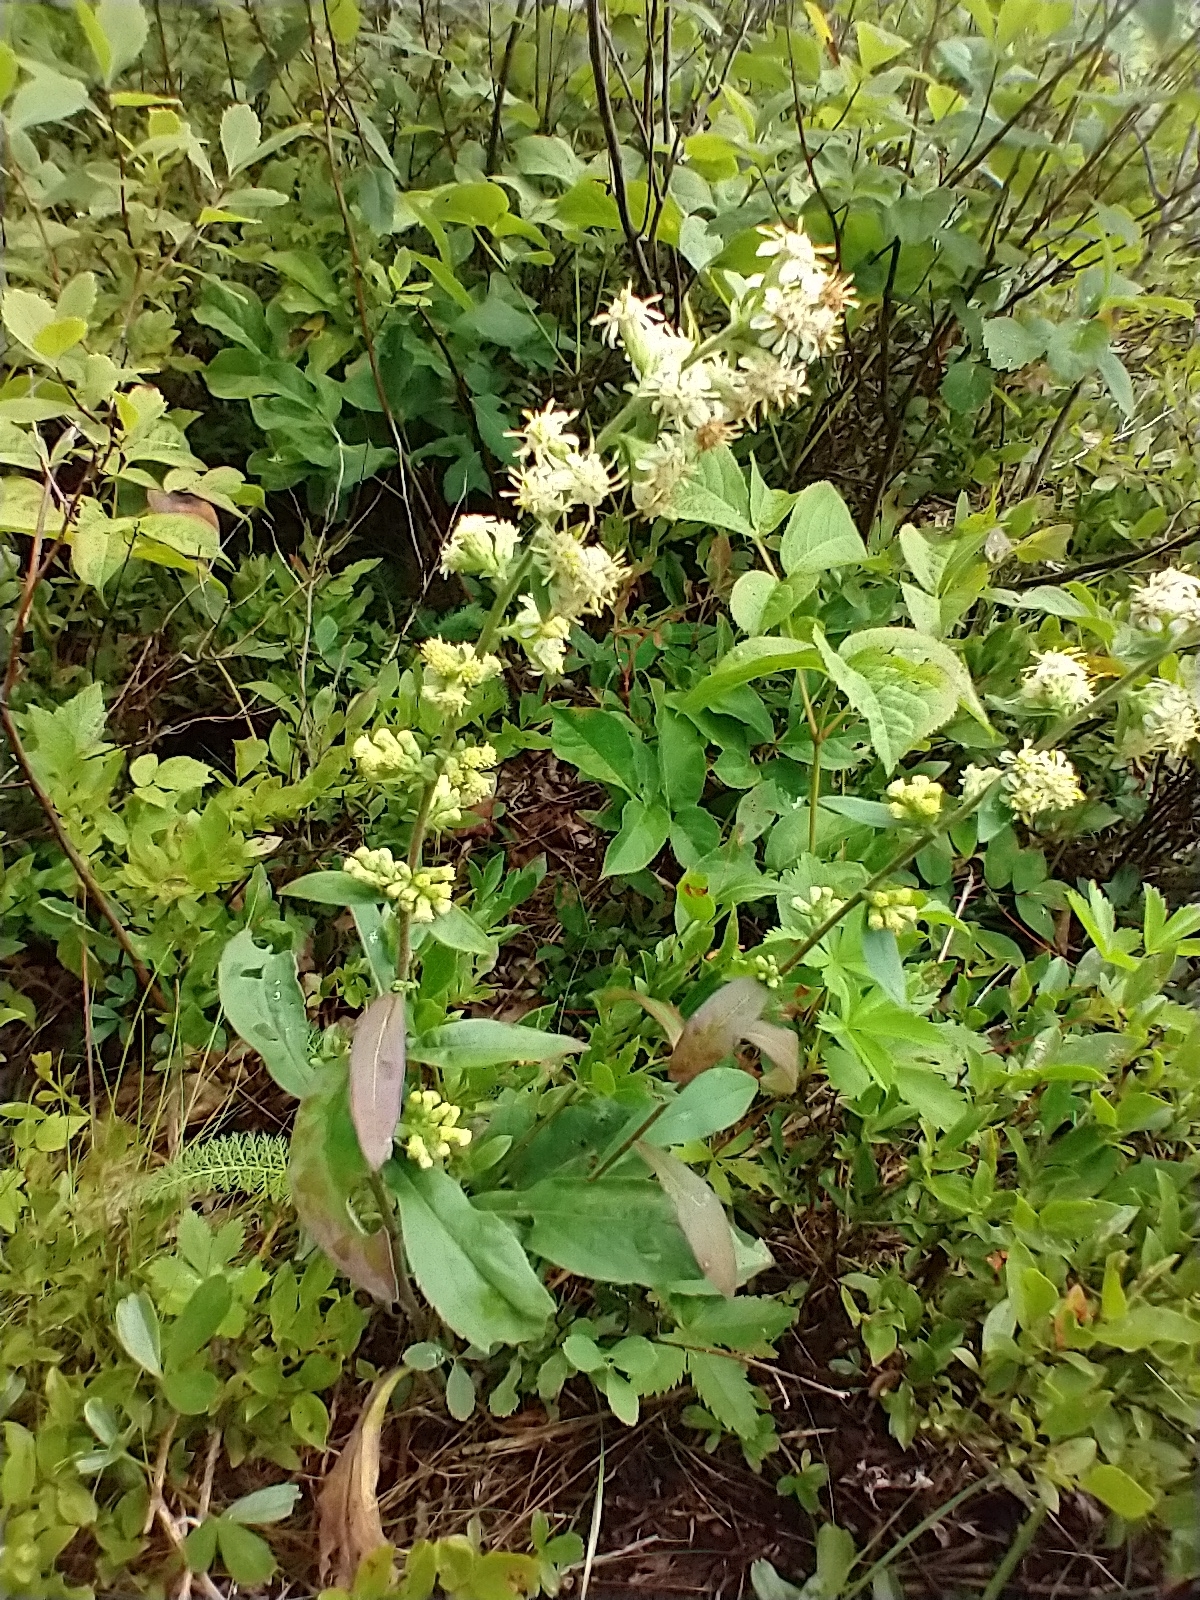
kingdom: Plantae
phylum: Tracheophyta
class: Magnoliopsida
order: Asterales
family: Asteraceae
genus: Solidago
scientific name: Solidago bicolor
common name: Silverrod
